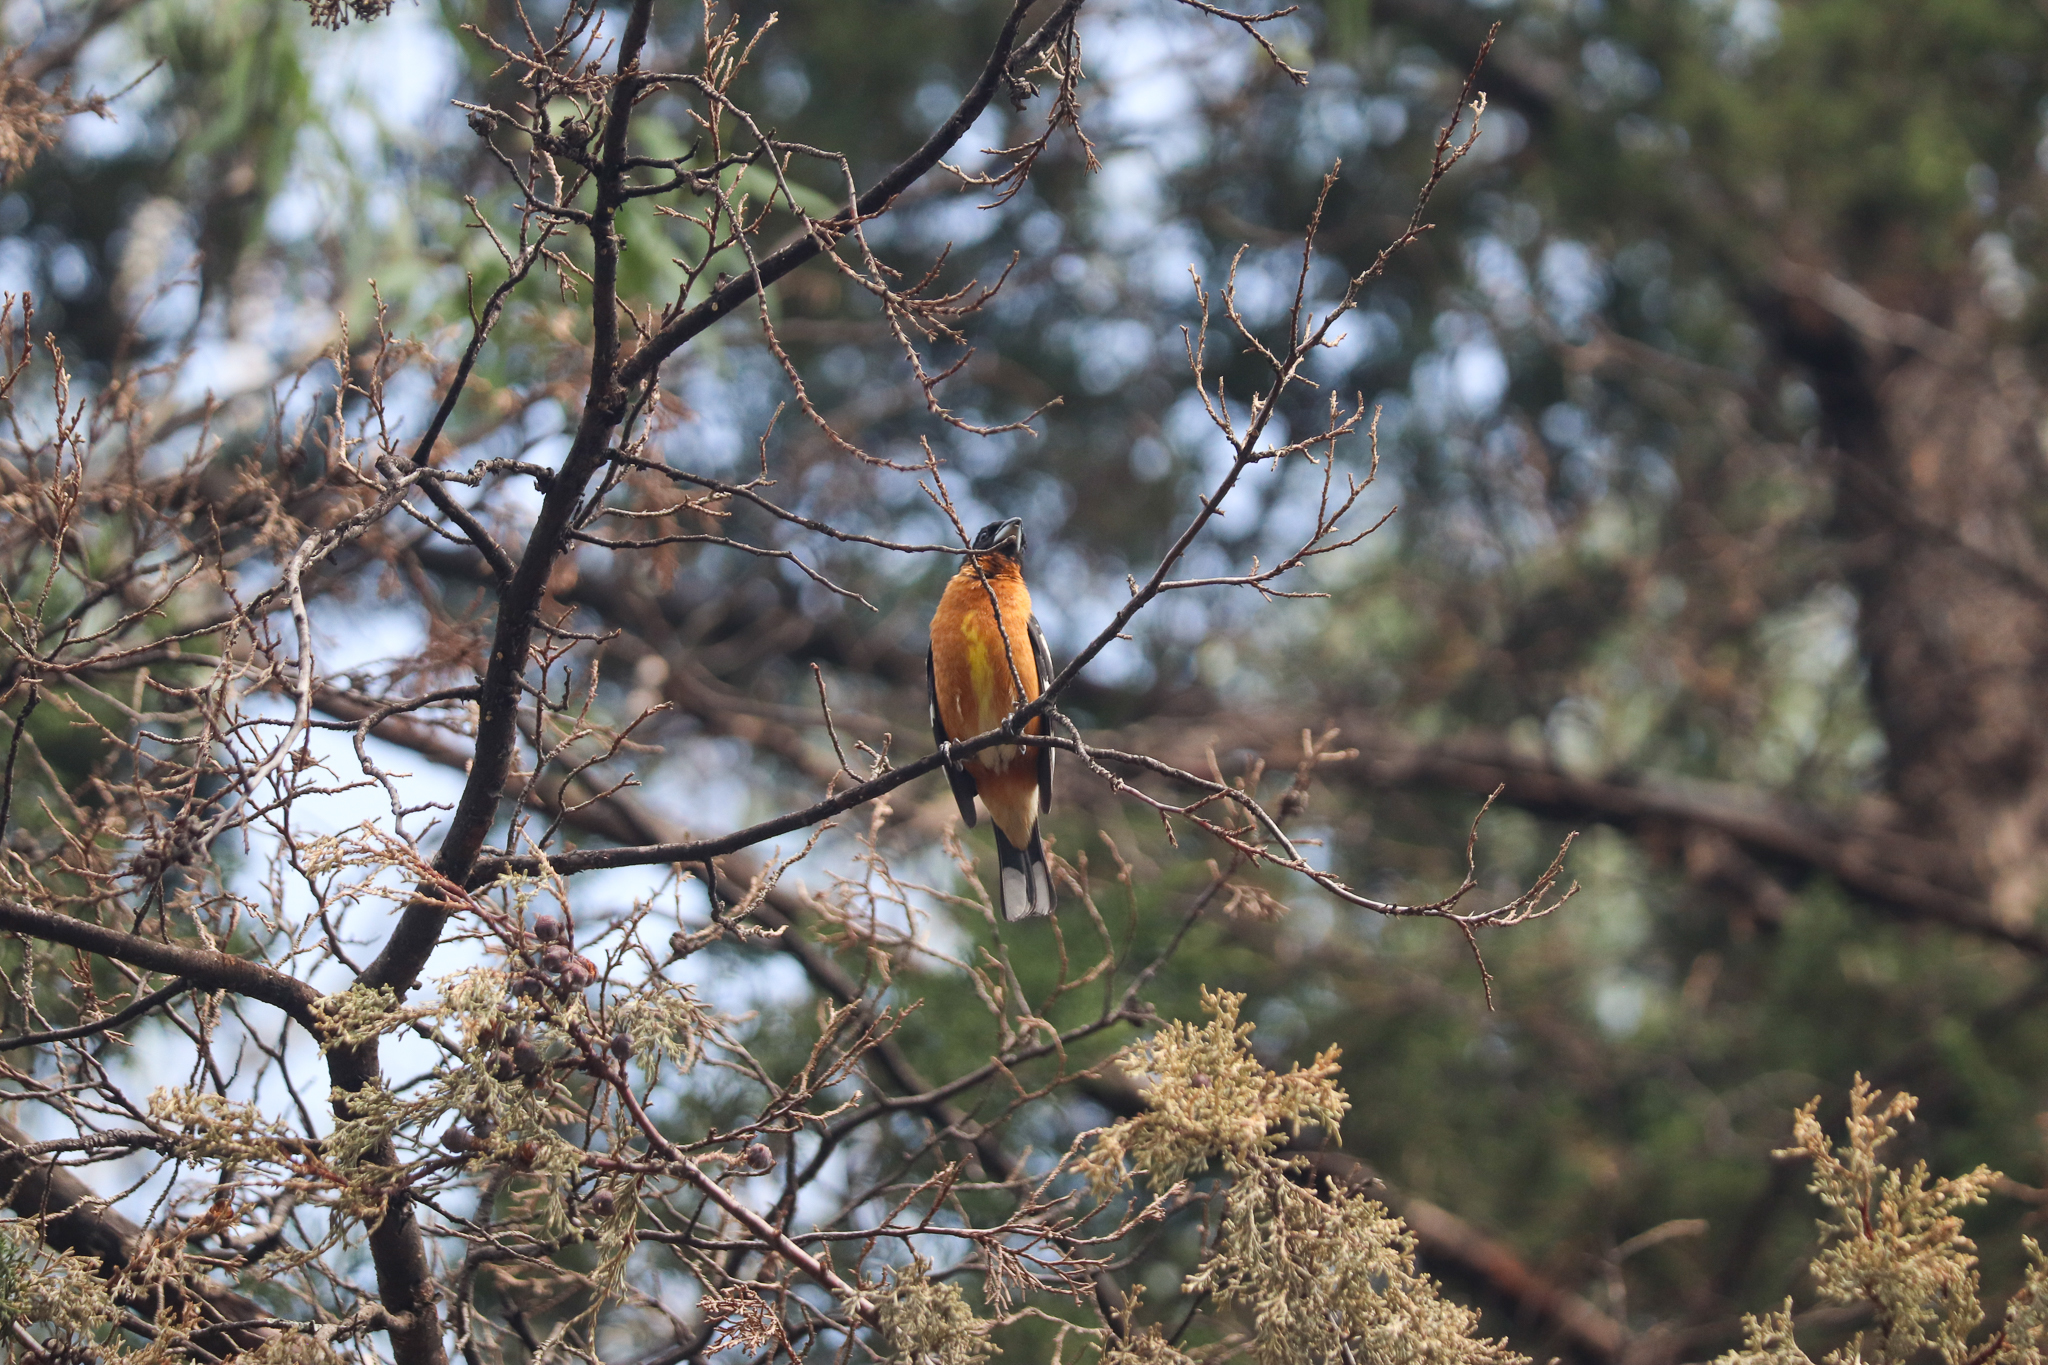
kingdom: Animalia
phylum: Chordata
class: Aves
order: Passeriformes
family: Cardinalidae
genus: Pheucticus
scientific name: Pheucticus melanocephalus
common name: Black-headed grosbeak
